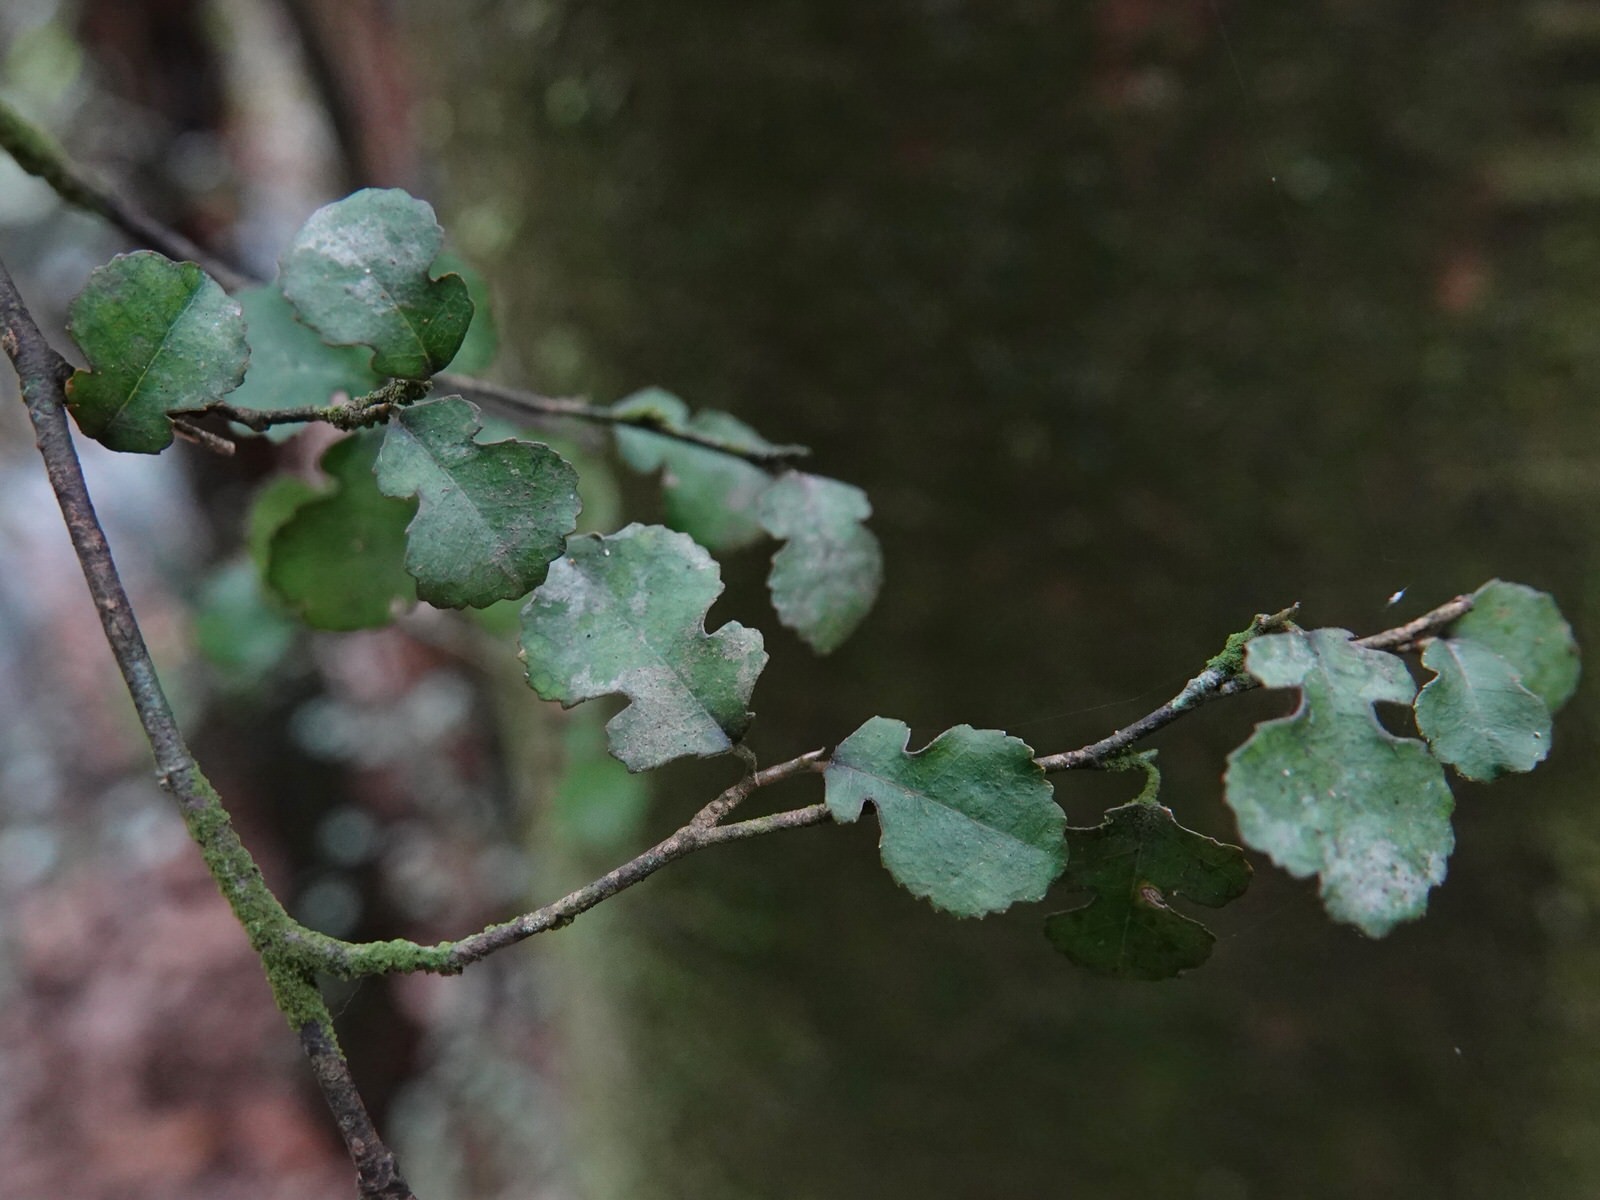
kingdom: Plantae
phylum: Tracheophyta
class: Magnoliopsida
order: Rosales
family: Moraceae
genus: Paratrophis
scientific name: Paratrophis microphylla
